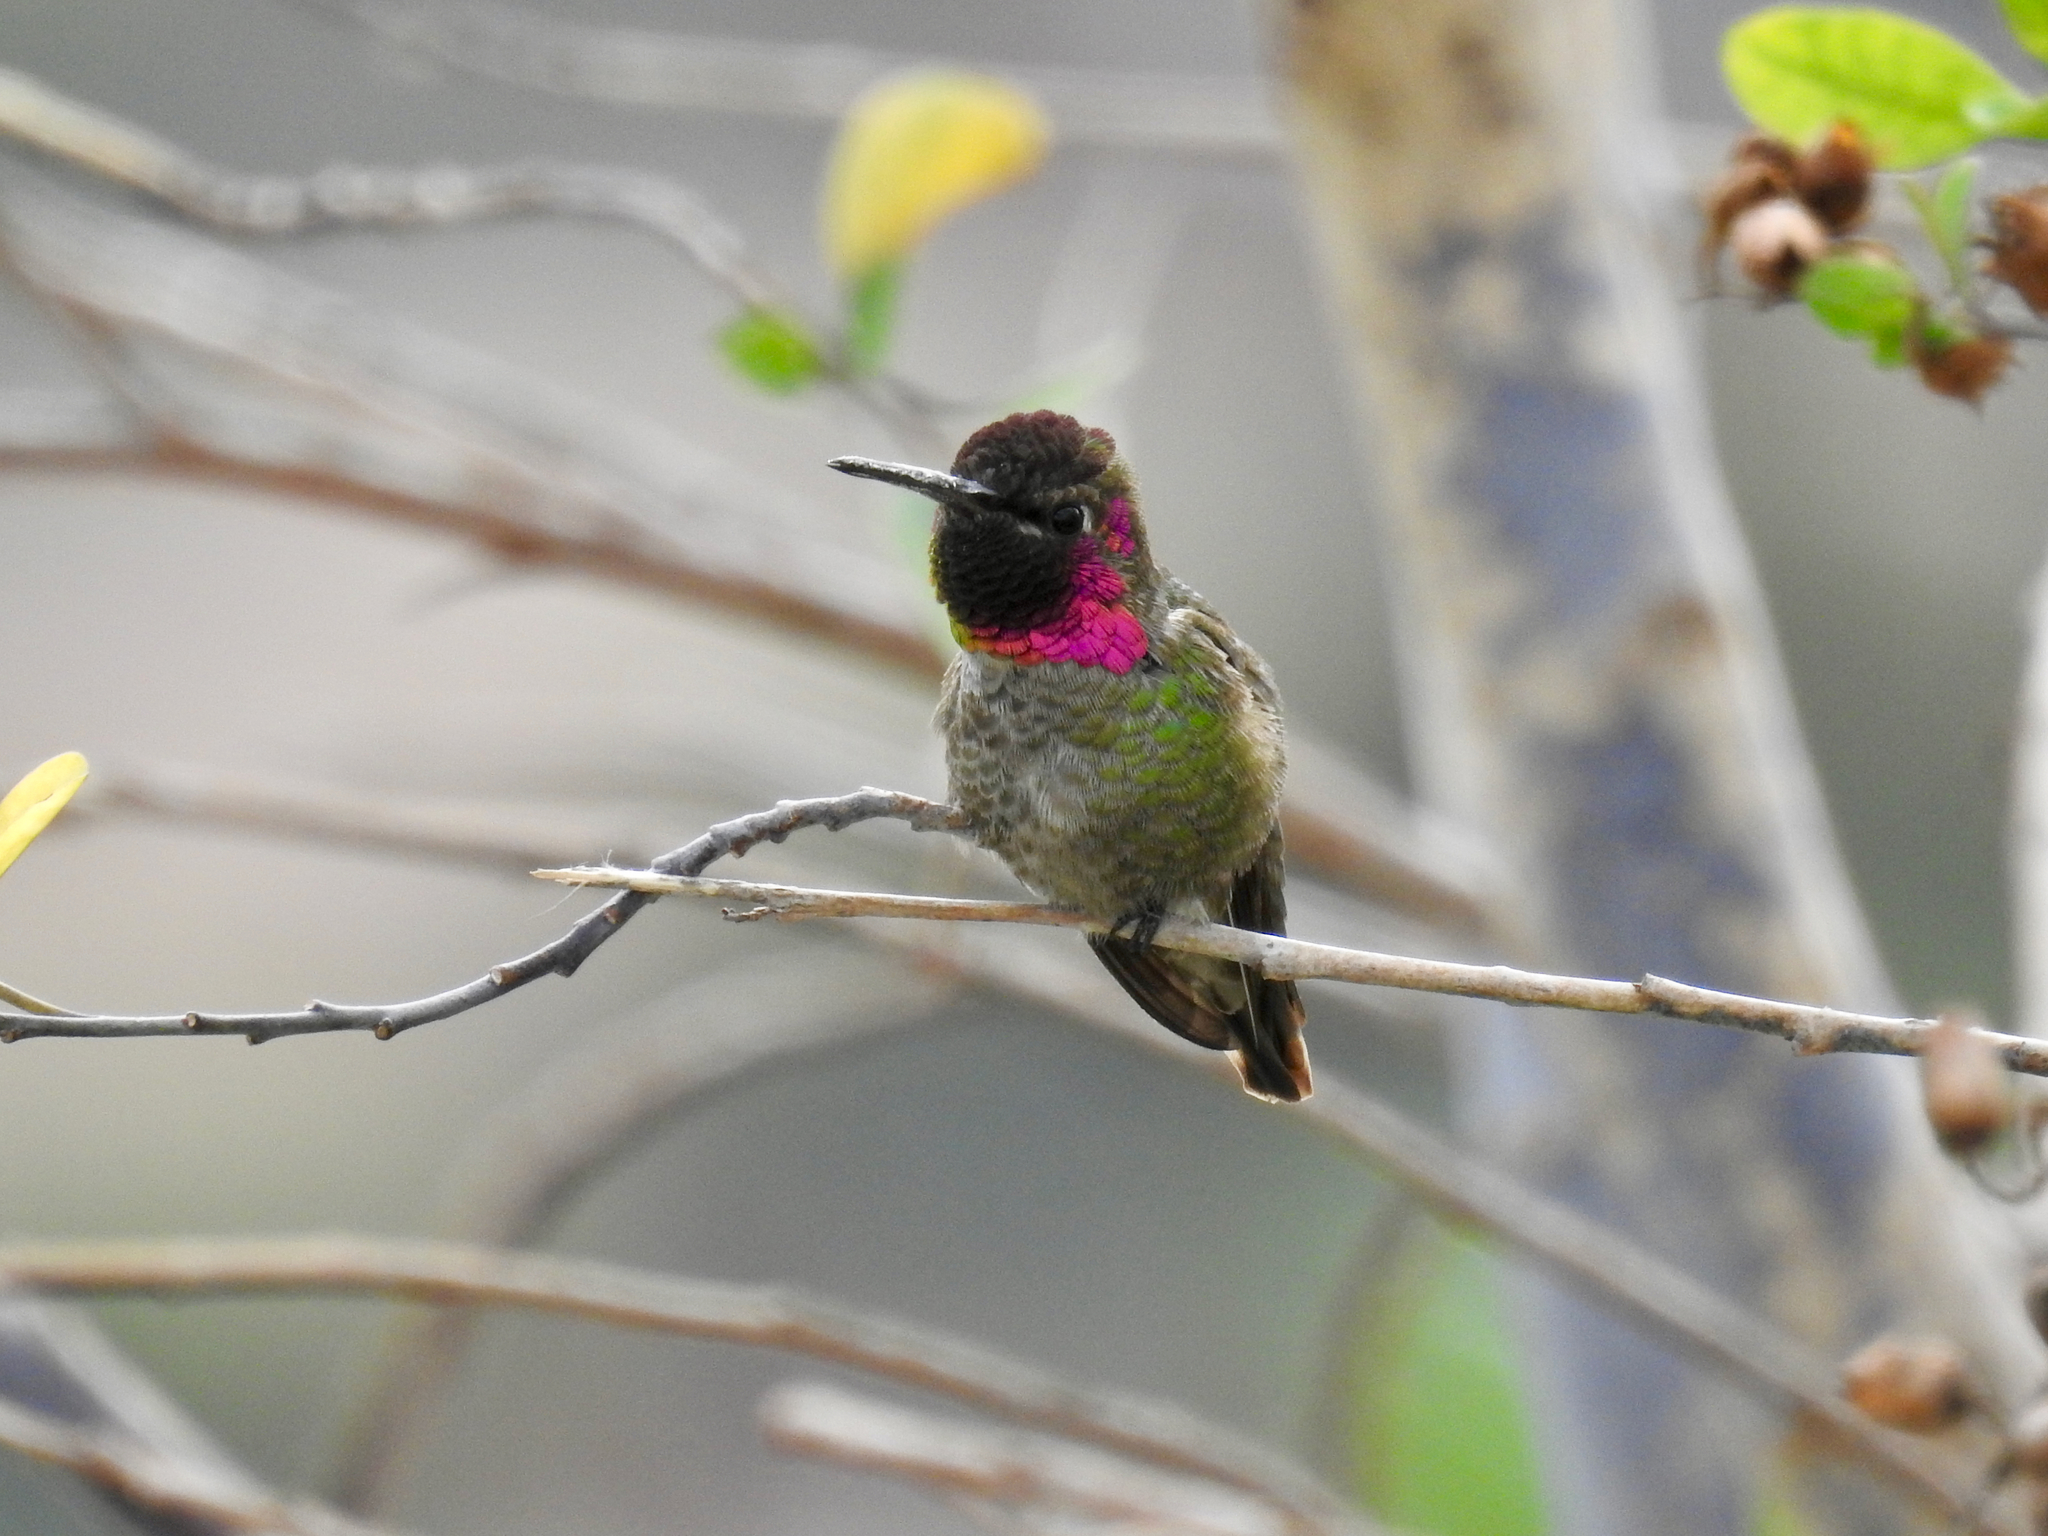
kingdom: Animalia
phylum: Chordata
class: Aves
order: Apodiformes
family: Trochilidae
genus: Calypte
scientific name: Calypte anna
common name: Anna's hummingbird
